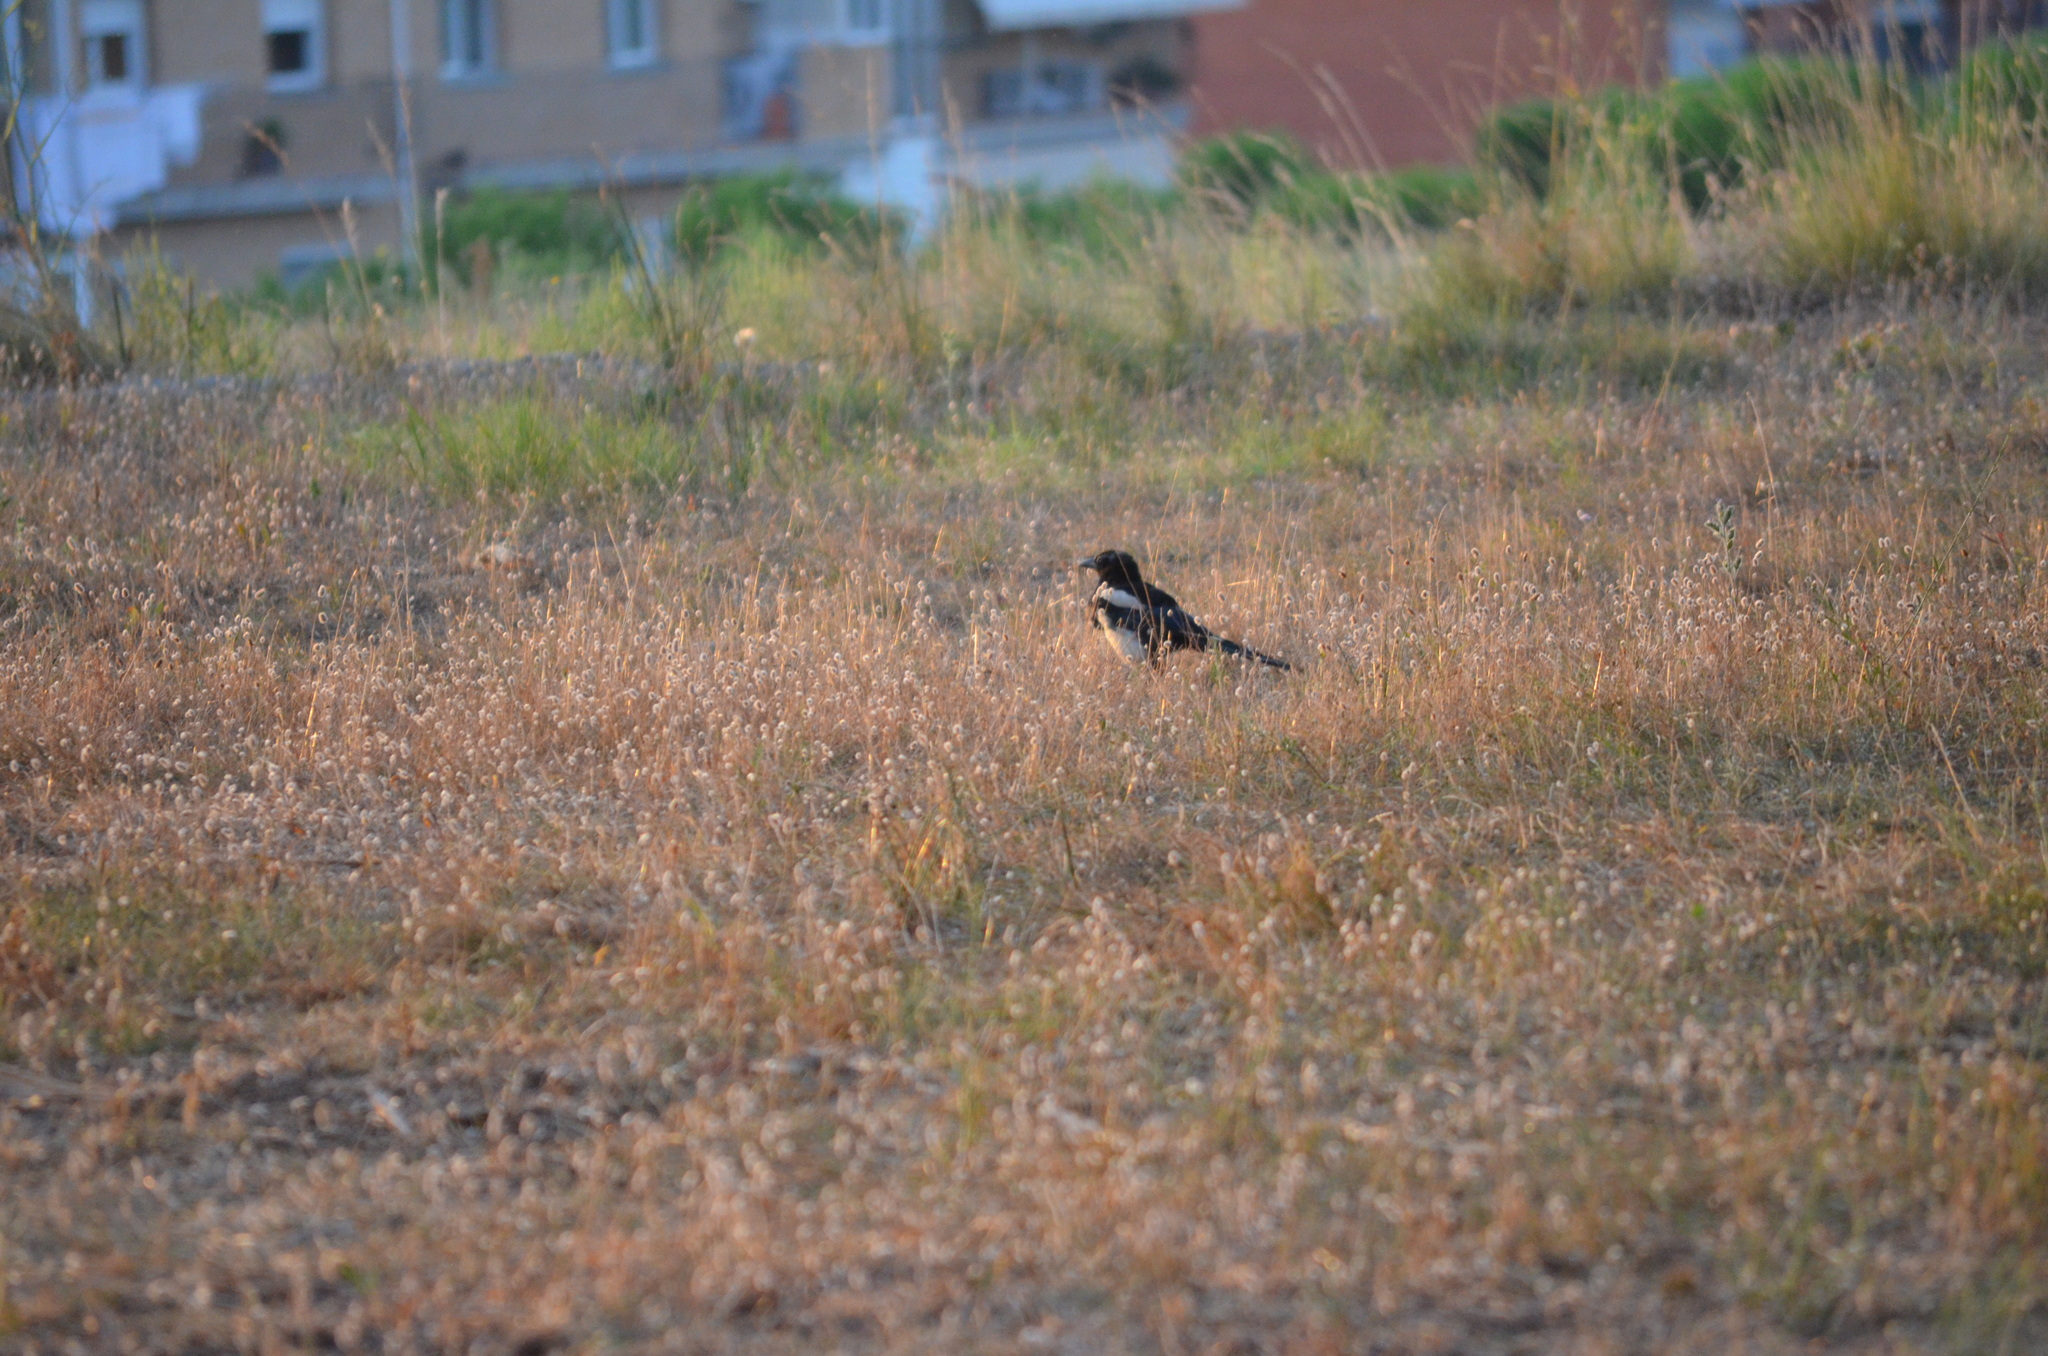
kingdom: Animalia
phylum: Chordata
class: Aves
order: Passeriformes
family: Corvidae
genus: Pica
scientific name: Pica pica
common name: Eurasian magpie
